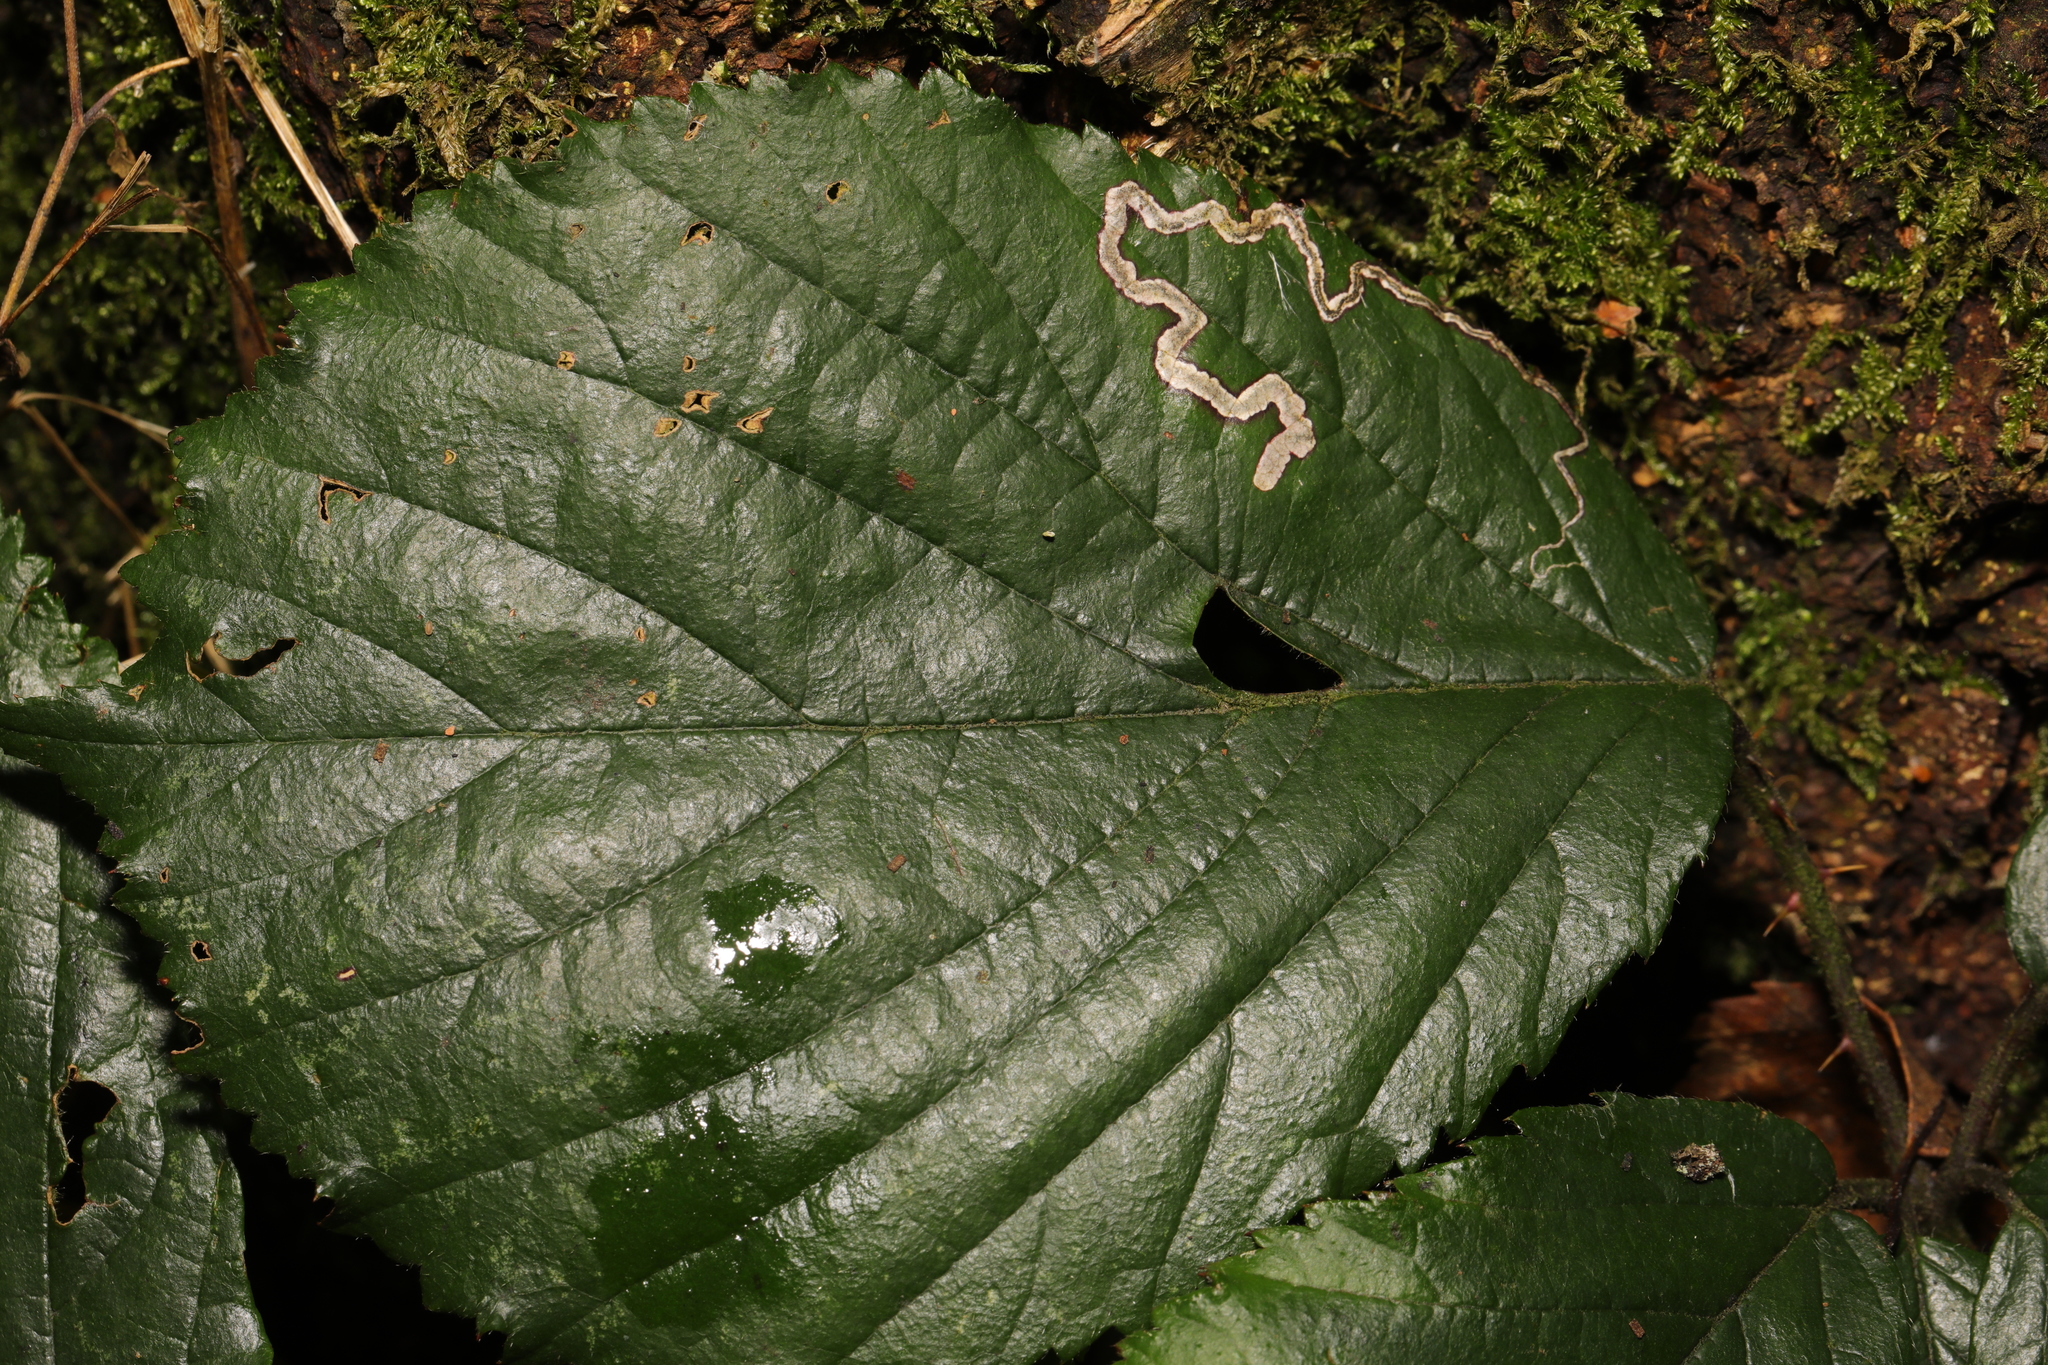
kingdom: Animalia
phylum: Arthropoda
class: Insecta
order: Lepidoptera
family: Nepticulidae
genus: Stigmella
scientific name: Stigmella aurella
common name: Golden pigmy
